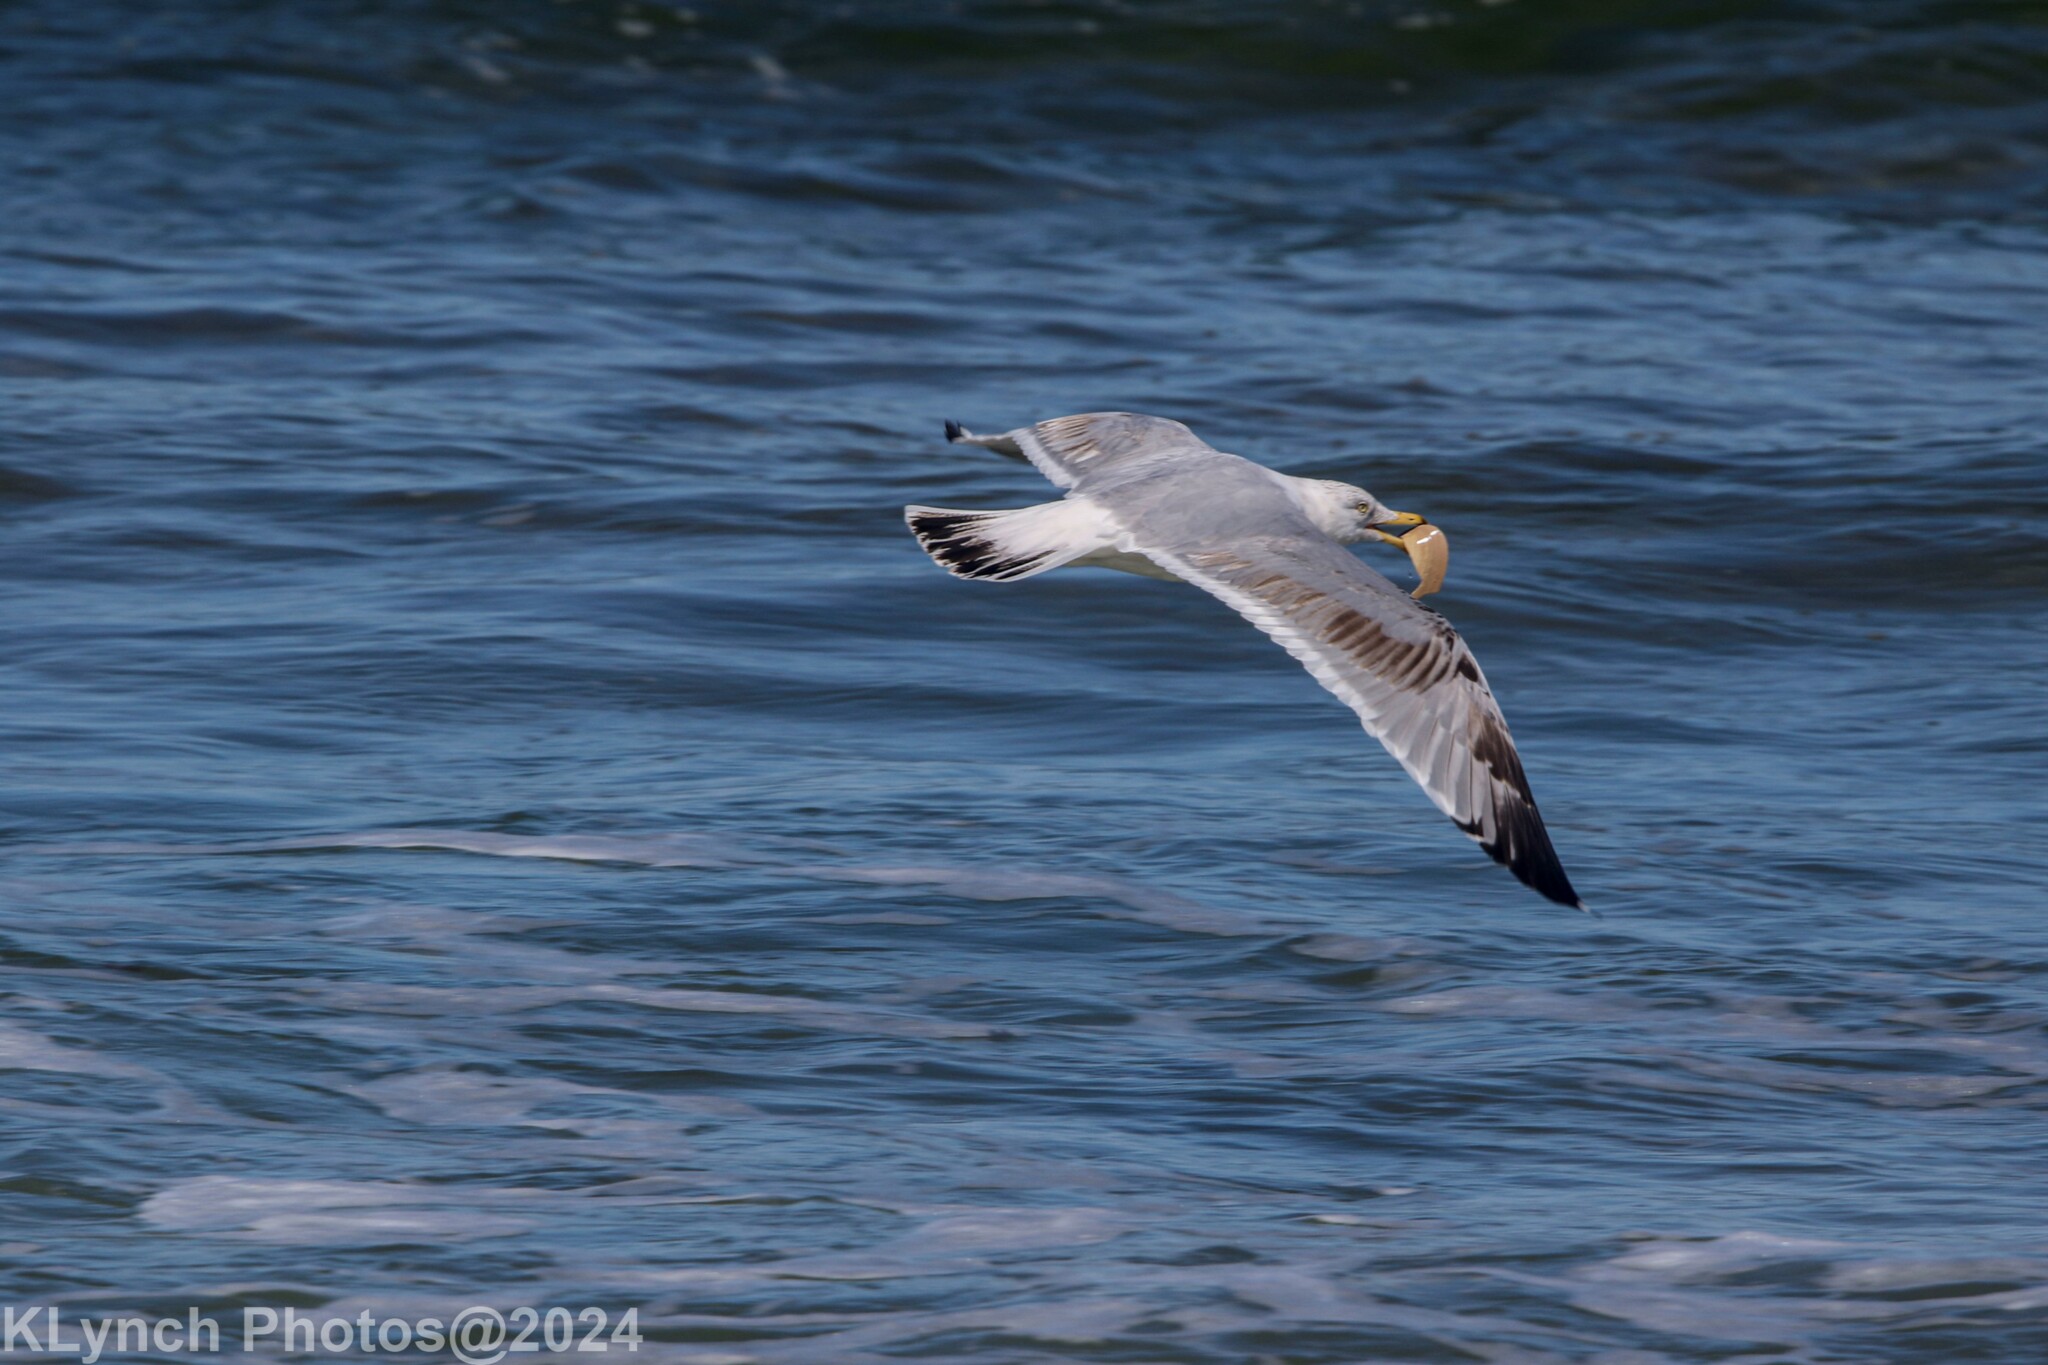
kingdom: Animalia
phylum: Chordata
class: Aves
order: Charadriiformes
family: Laridae
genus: Larus
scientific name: Larus argentatus
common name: Herring gull
